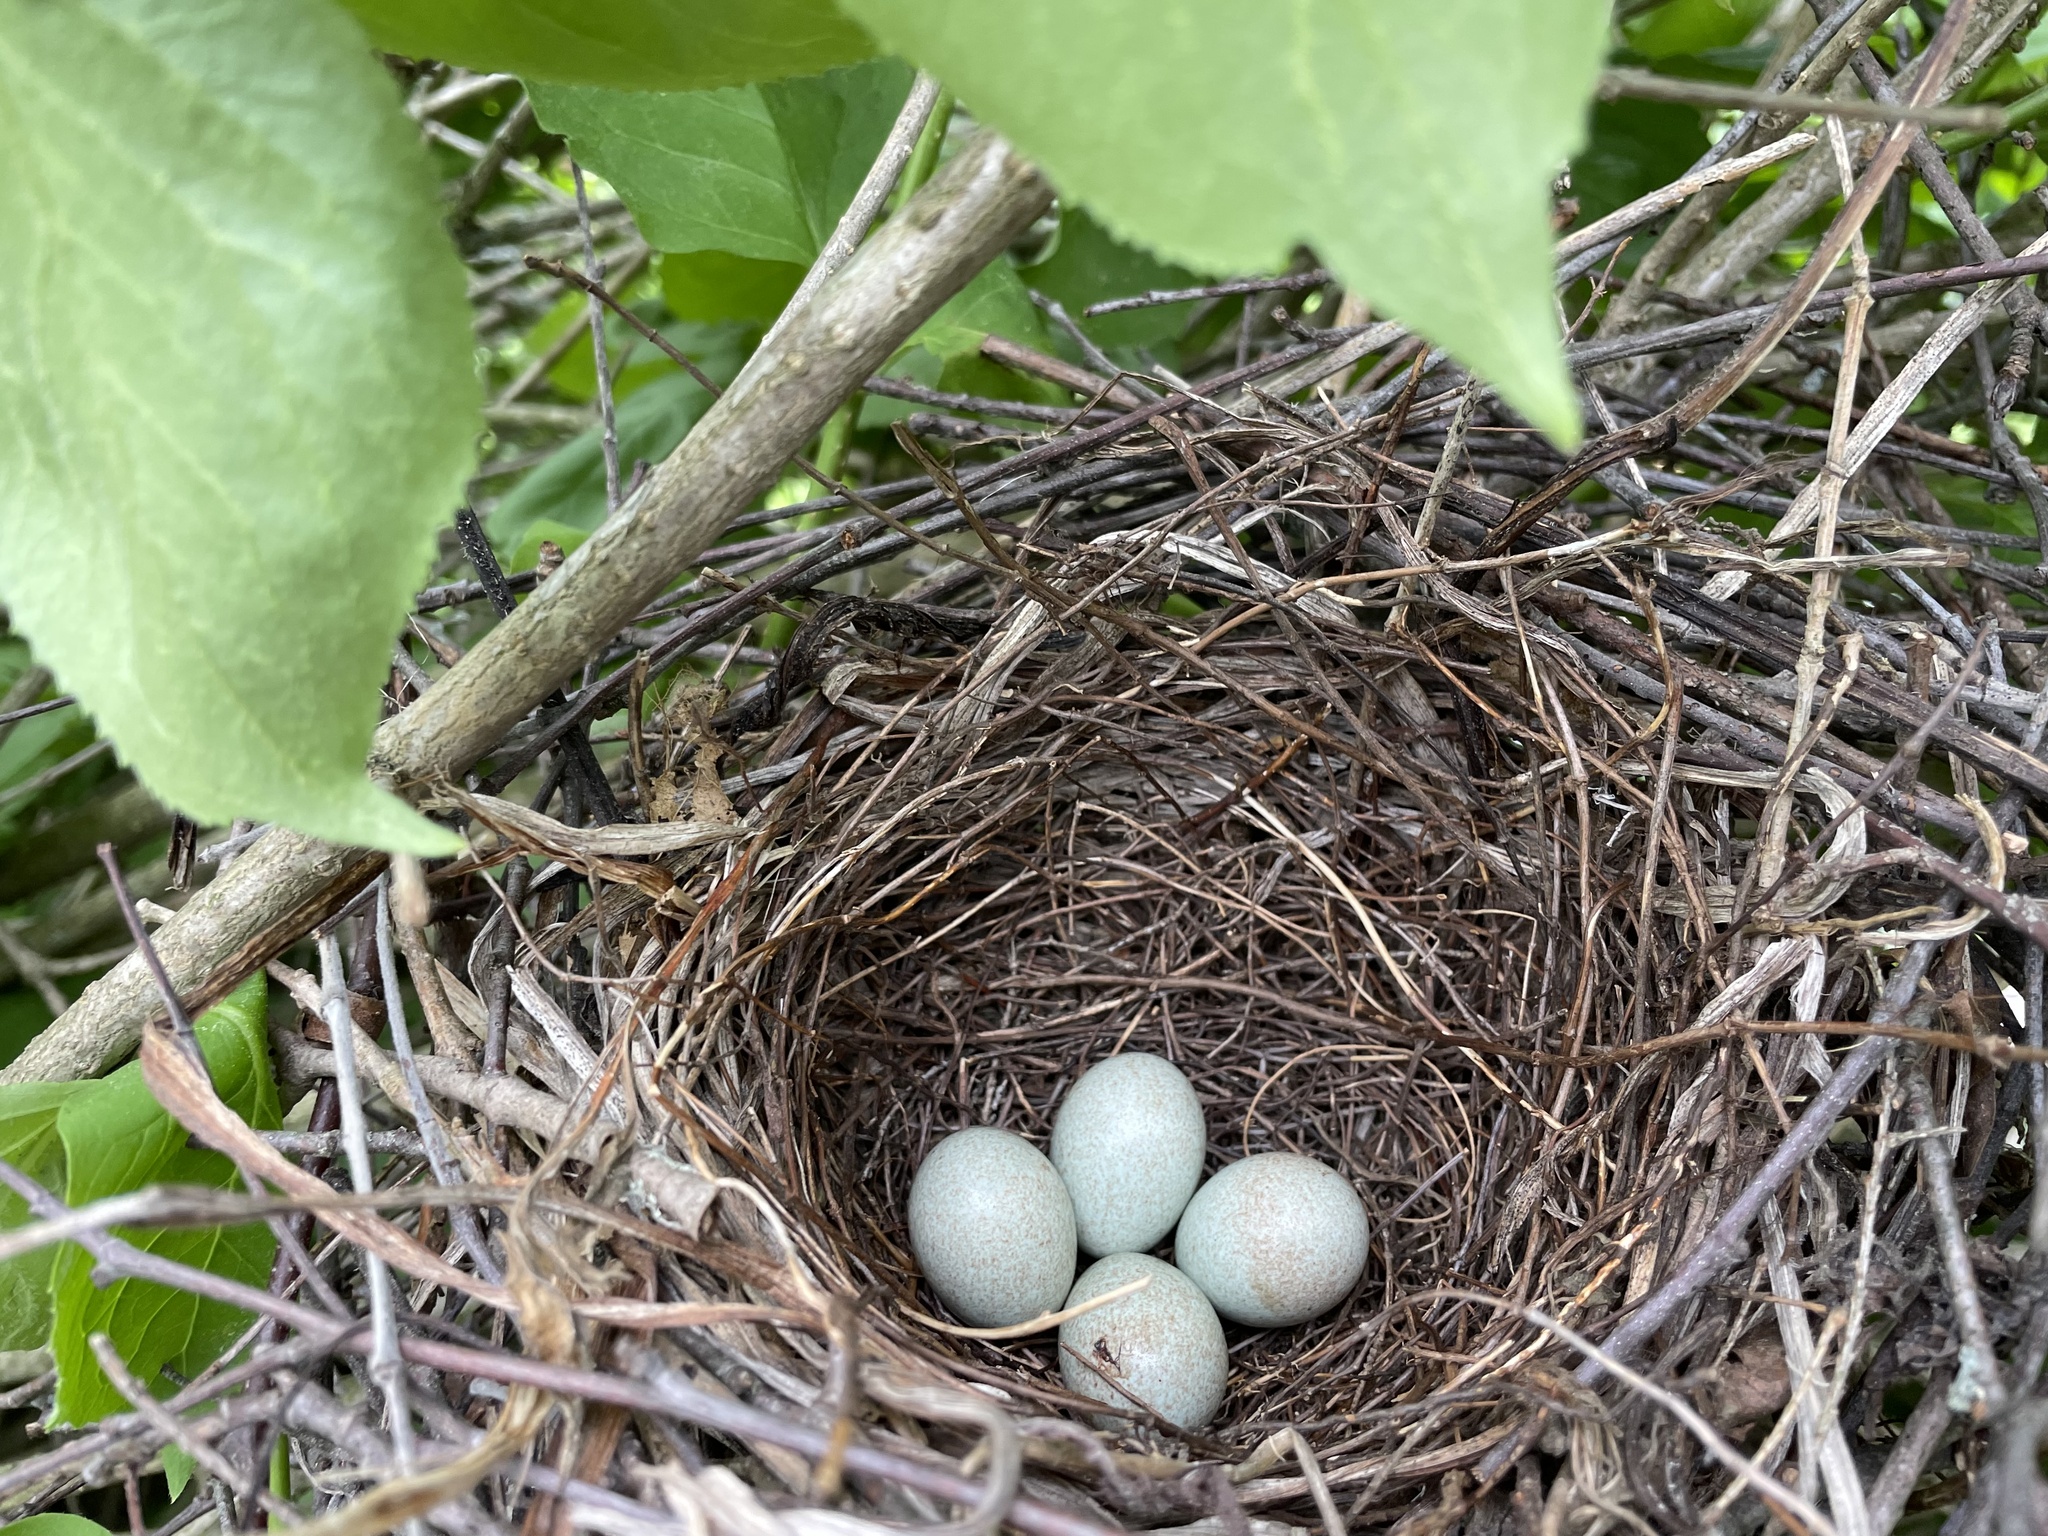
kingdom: Animalia
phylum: Chordata
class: Aves
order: Passeriformes
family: Mimidae
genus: Toxostoma
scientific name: Toxostoma rufum
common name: Brown thrasher
